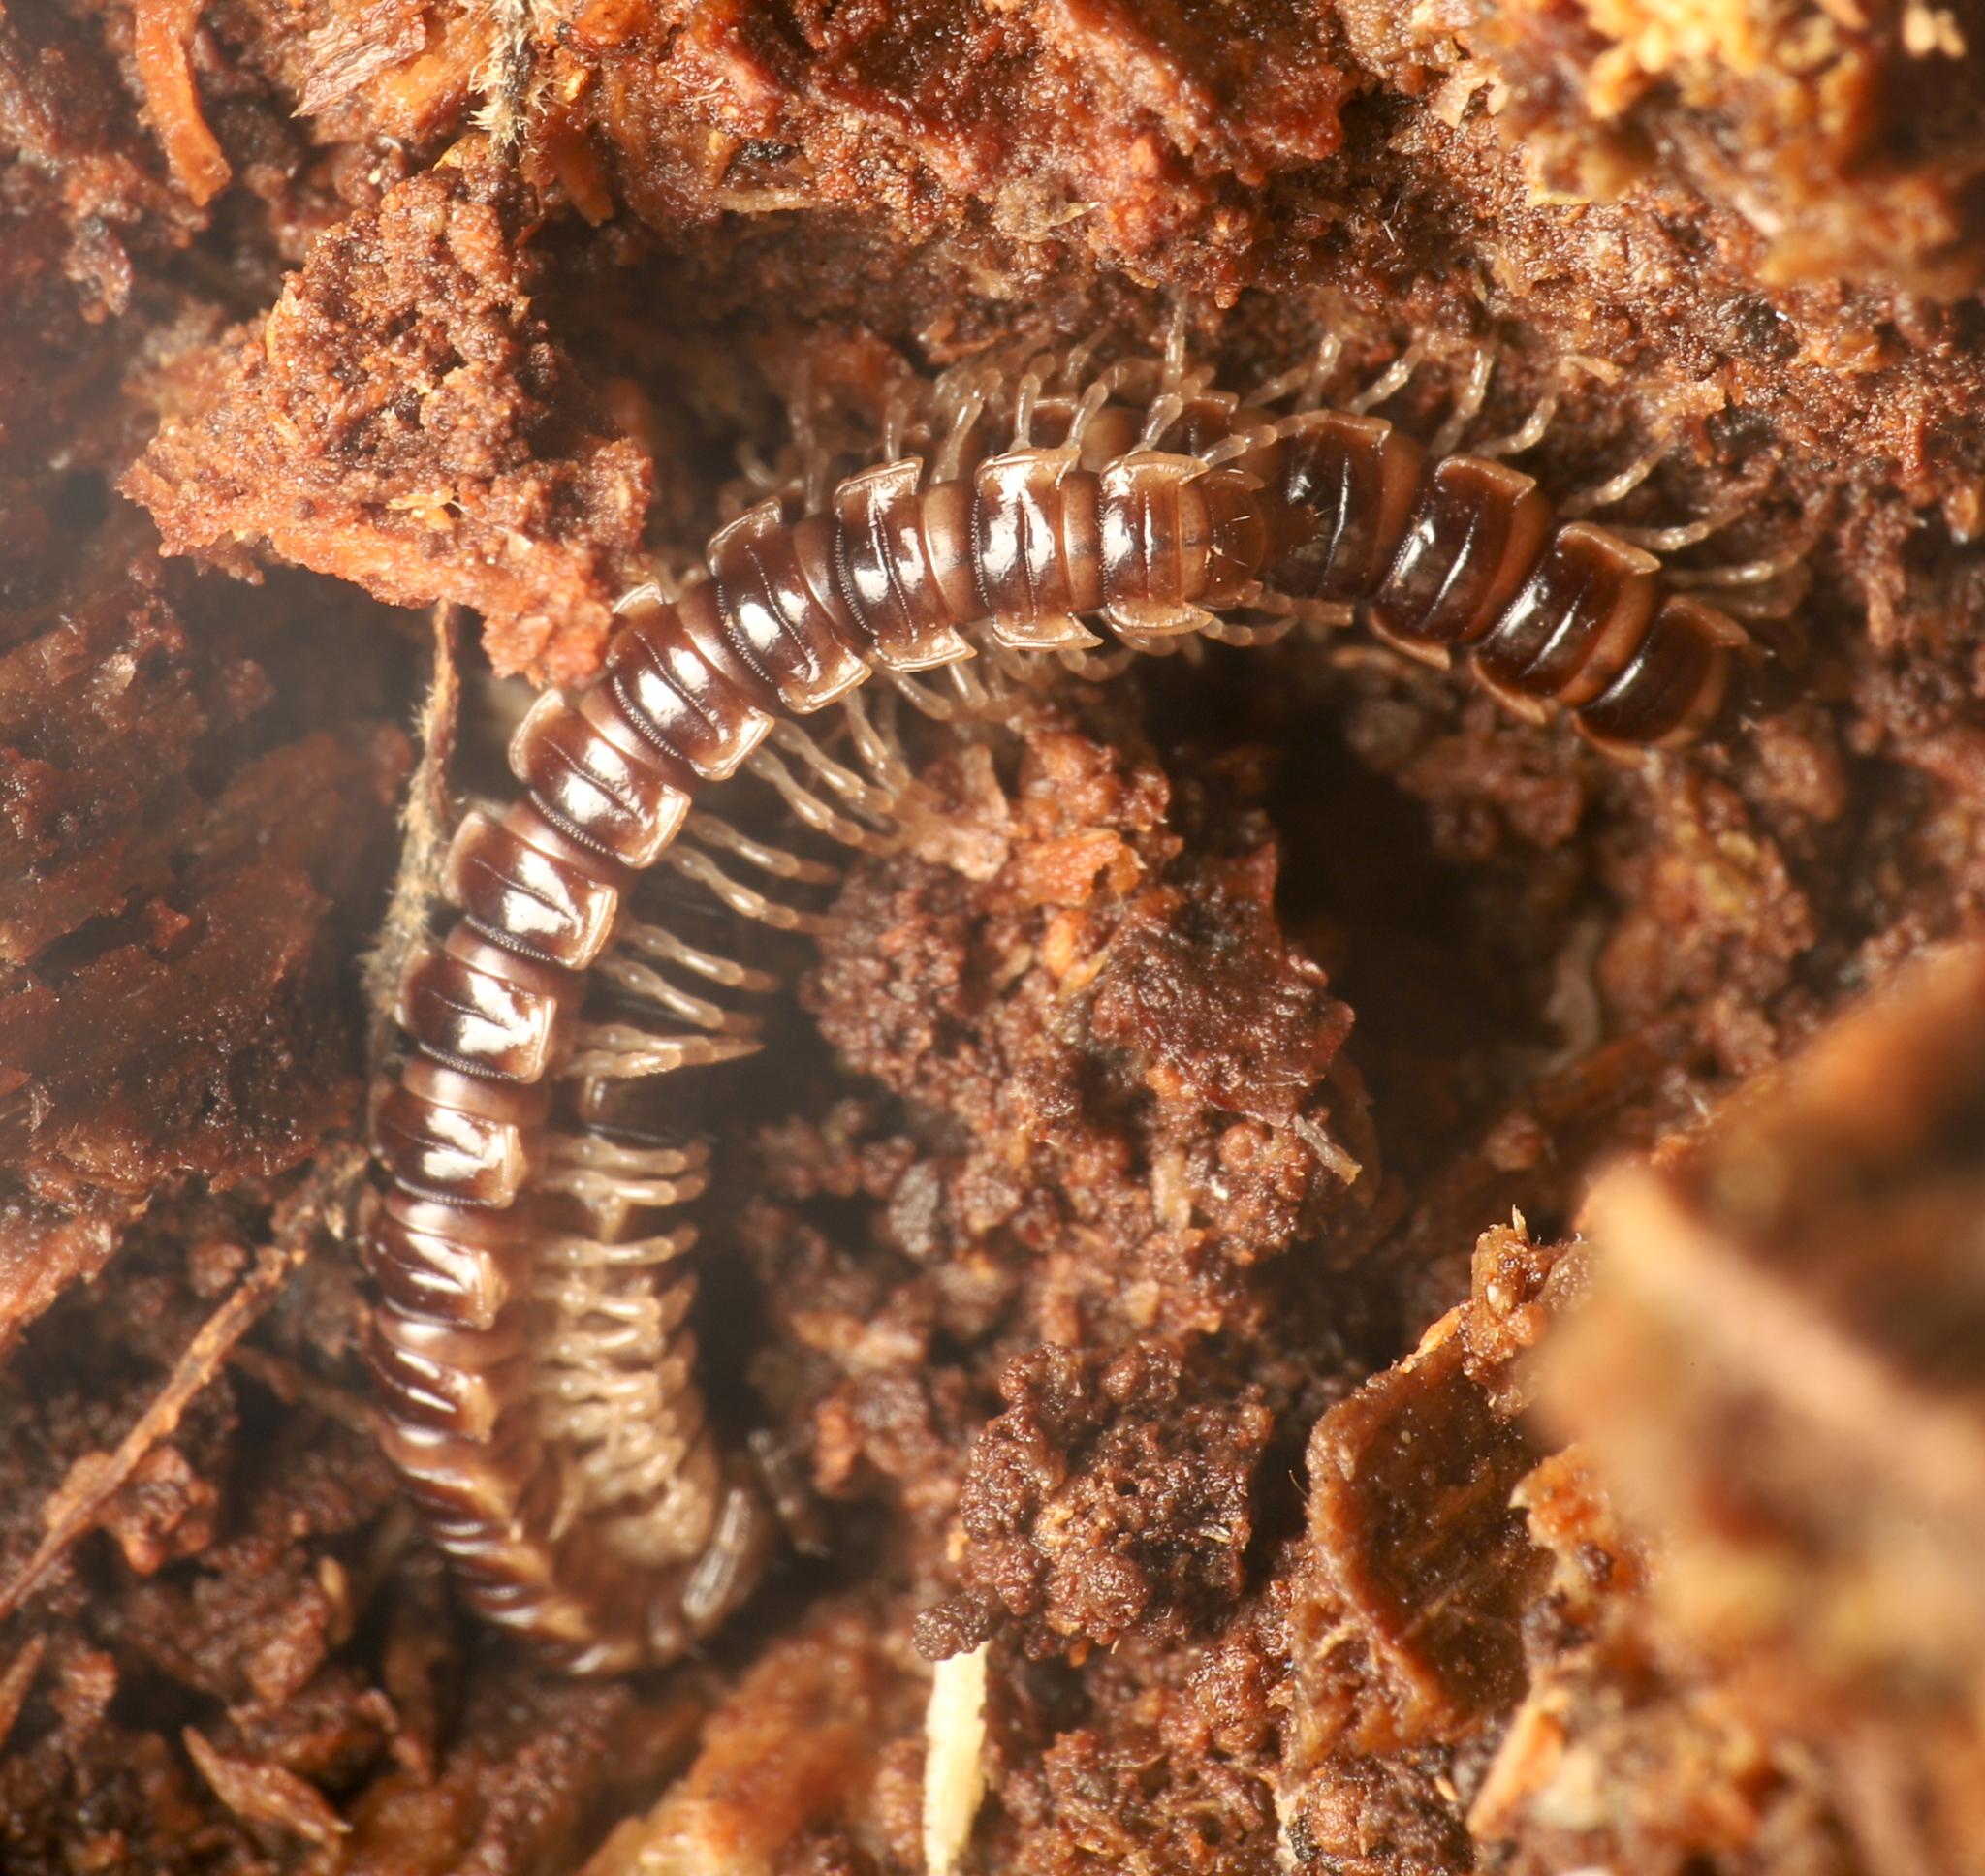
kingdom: Animalia
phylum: Arthropoda
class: Diplopoda
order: Polydesmida
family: Paradoxosomatidae
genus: Oxidus
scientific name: Oxidus gracilis
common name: Greenhouse millipede
